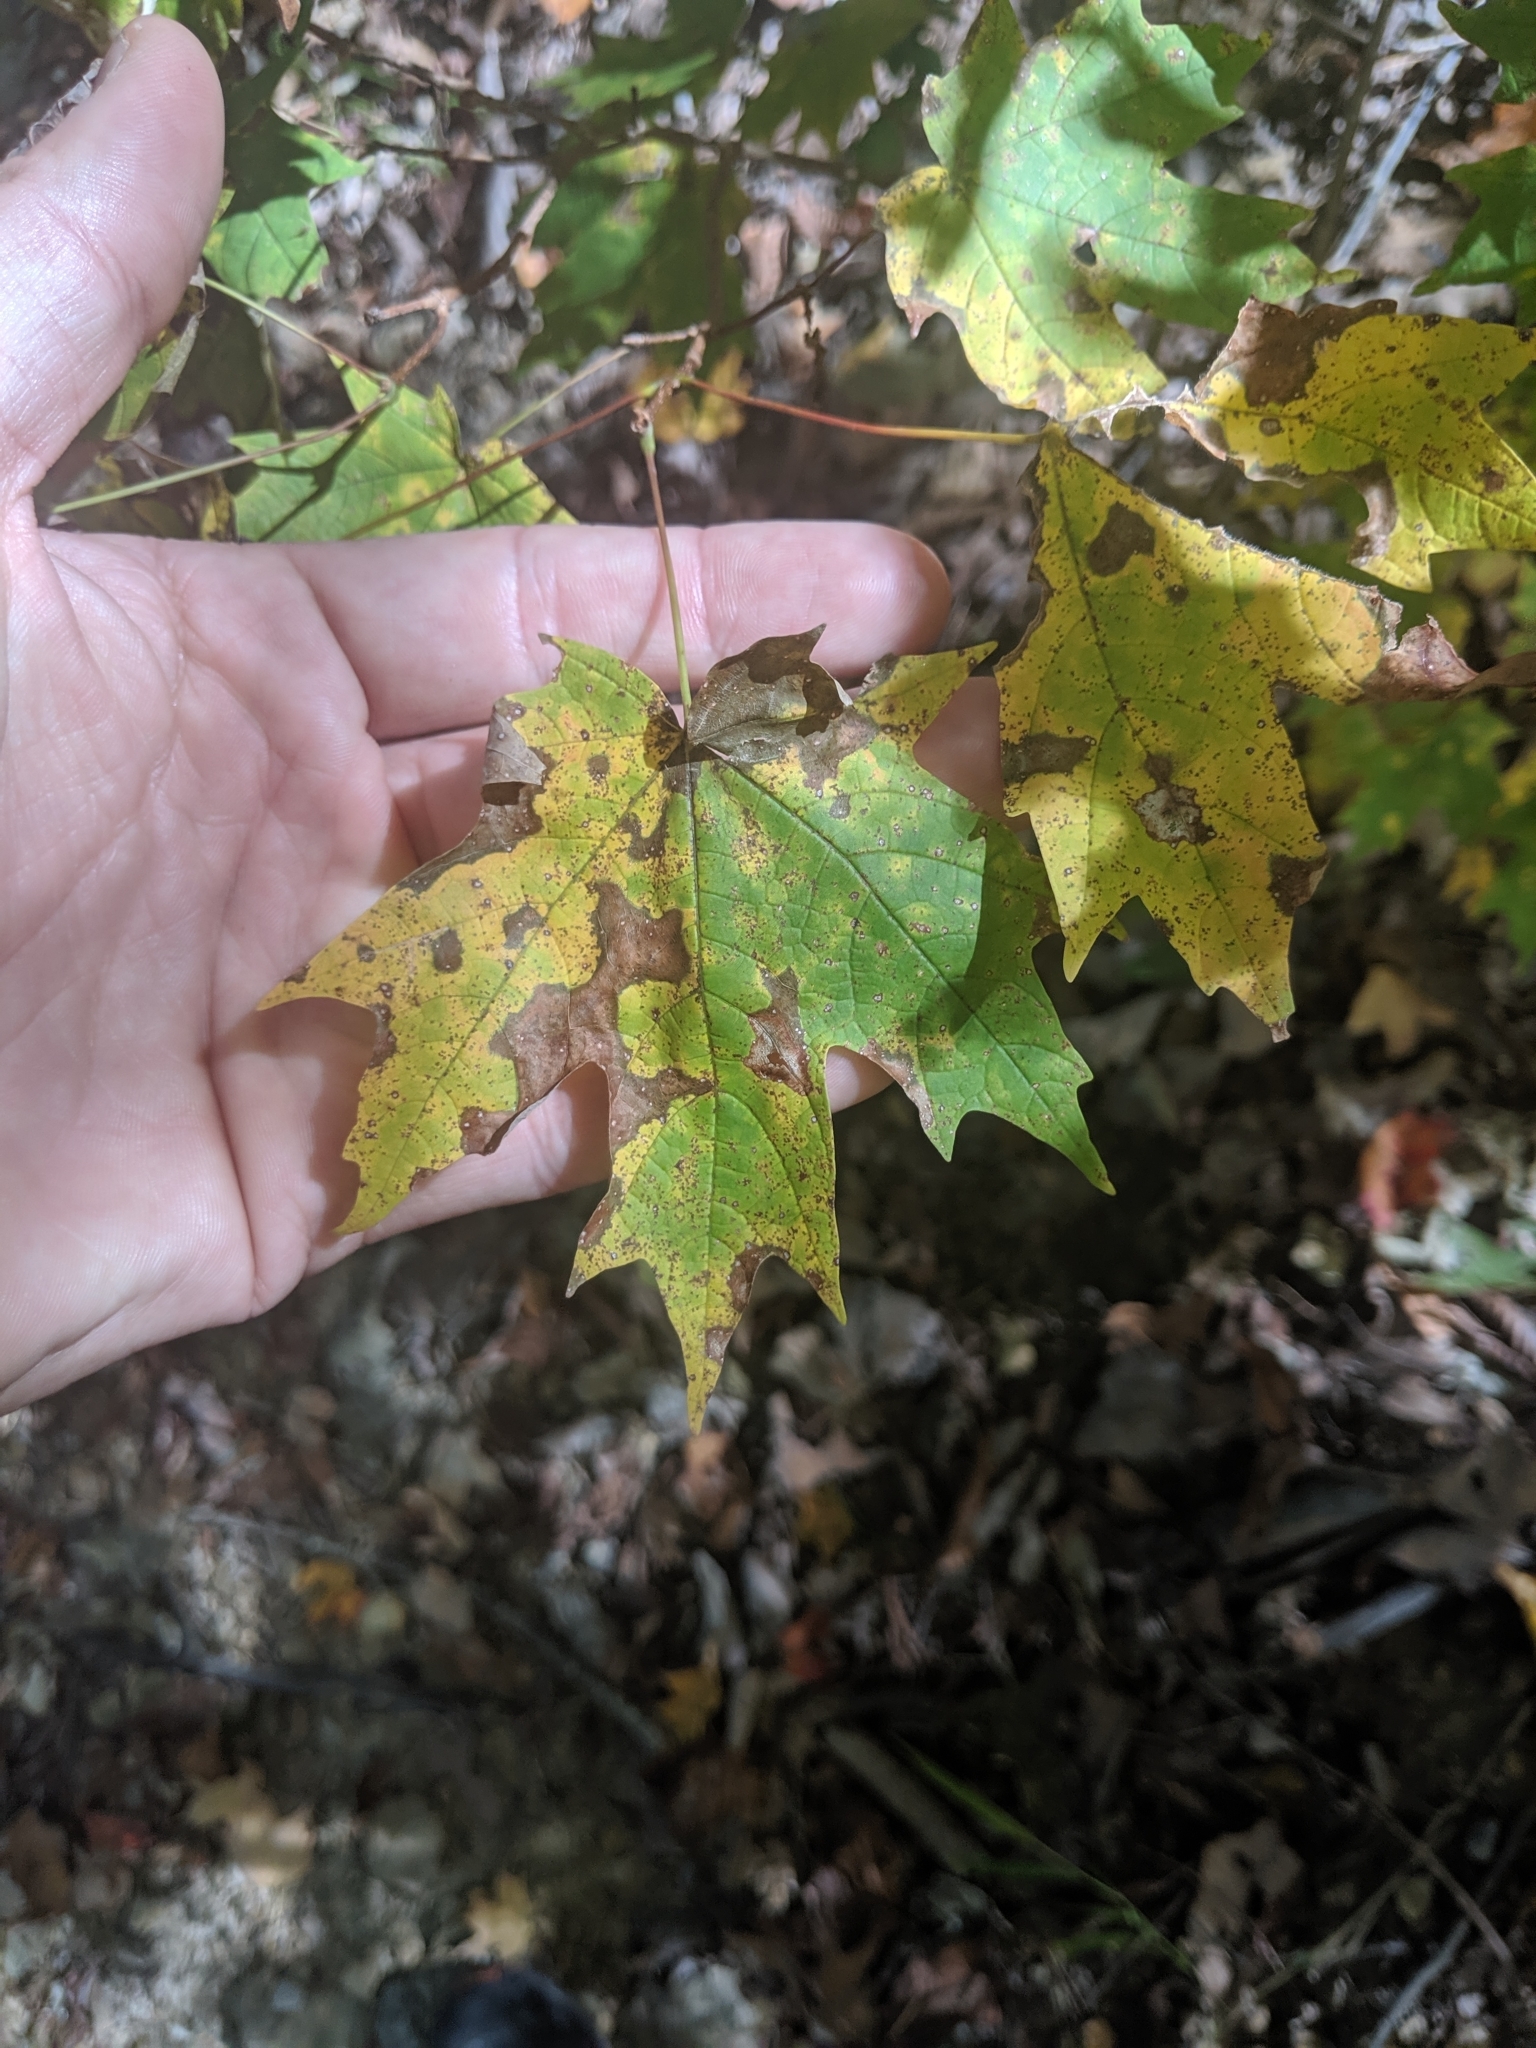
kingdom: Plantae
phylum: Tracheophyta
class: Magnoliopsida
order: Sapindales
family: Sapindaceae
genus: Acer
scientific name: Acer saccharum
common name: Sugar maple
